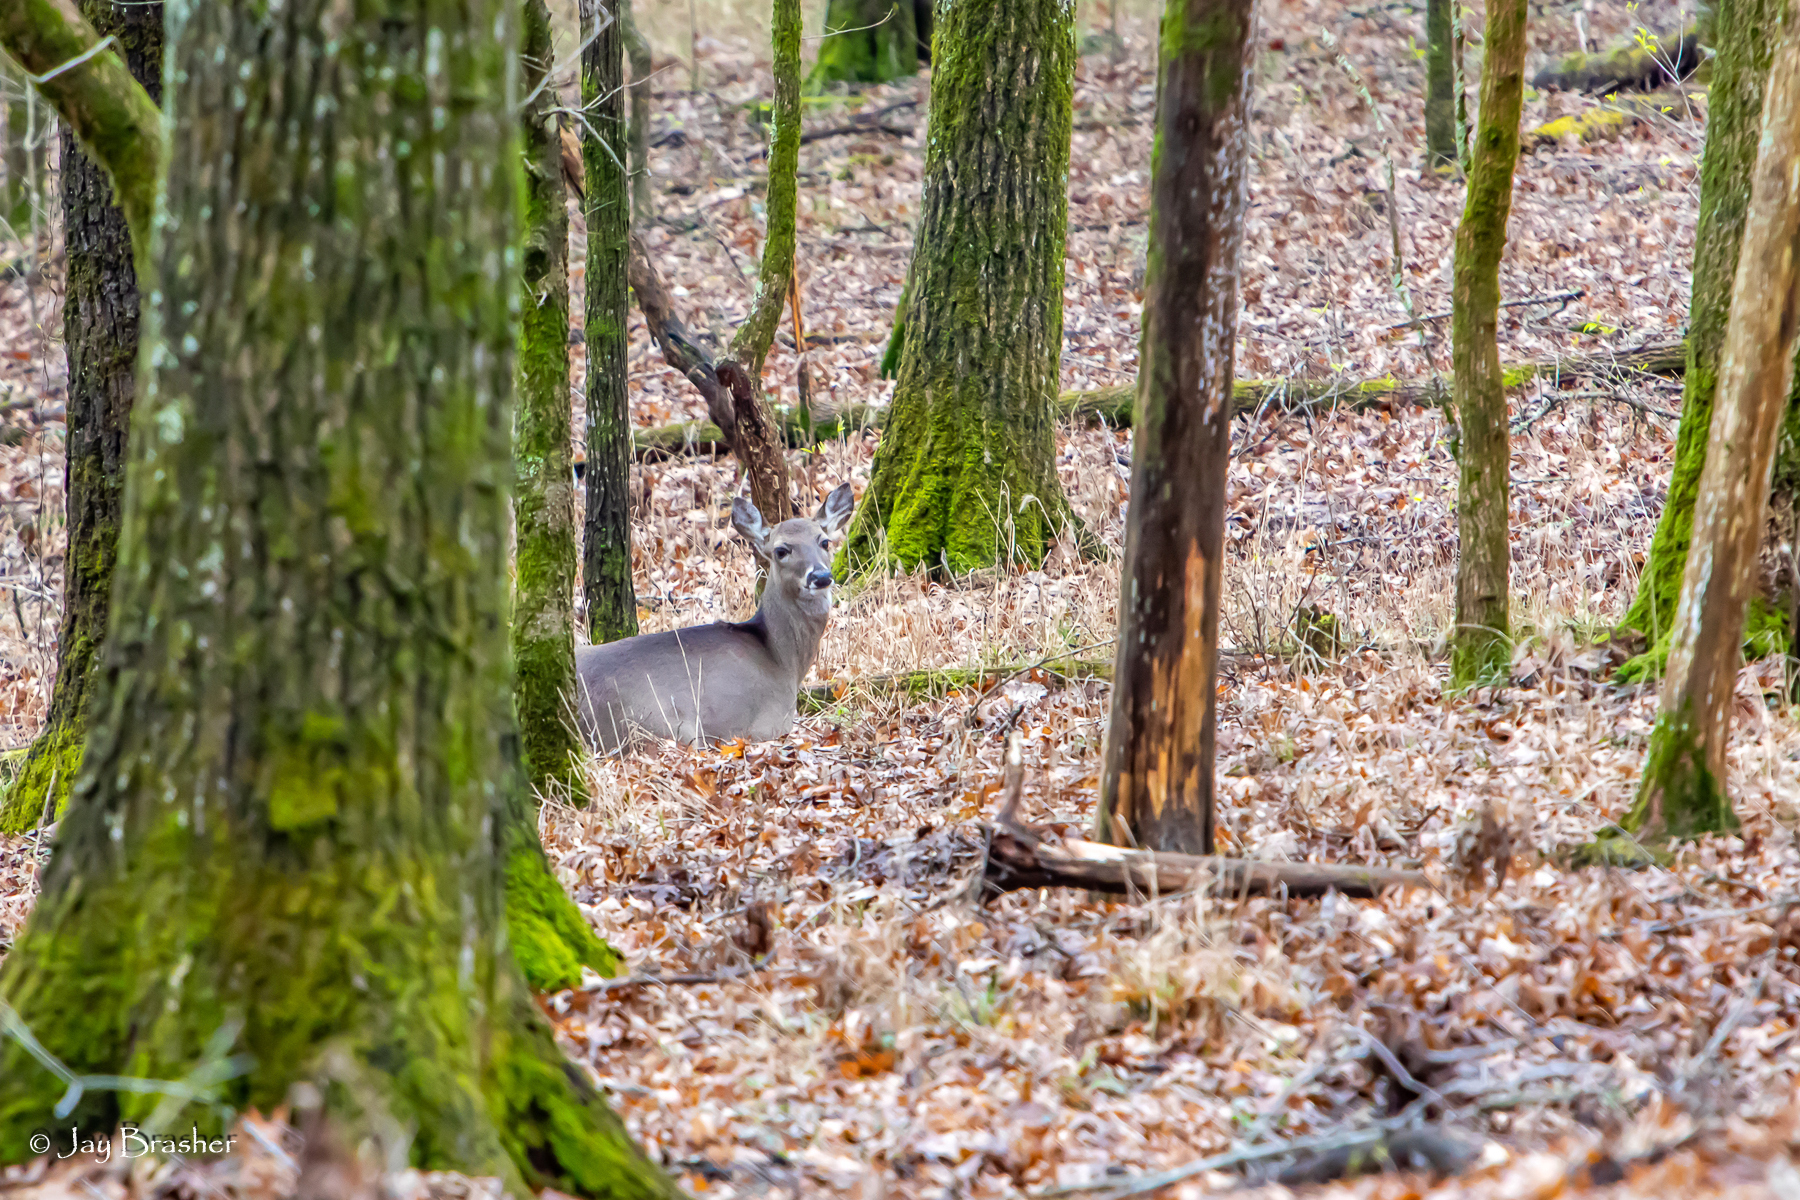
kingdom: Animalia
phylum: Chordata
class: Mammalia
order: Artiodactyla
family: Cervidae
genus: Odocoileus
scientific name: Odocoileus virginianus
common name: White-tailed deer
